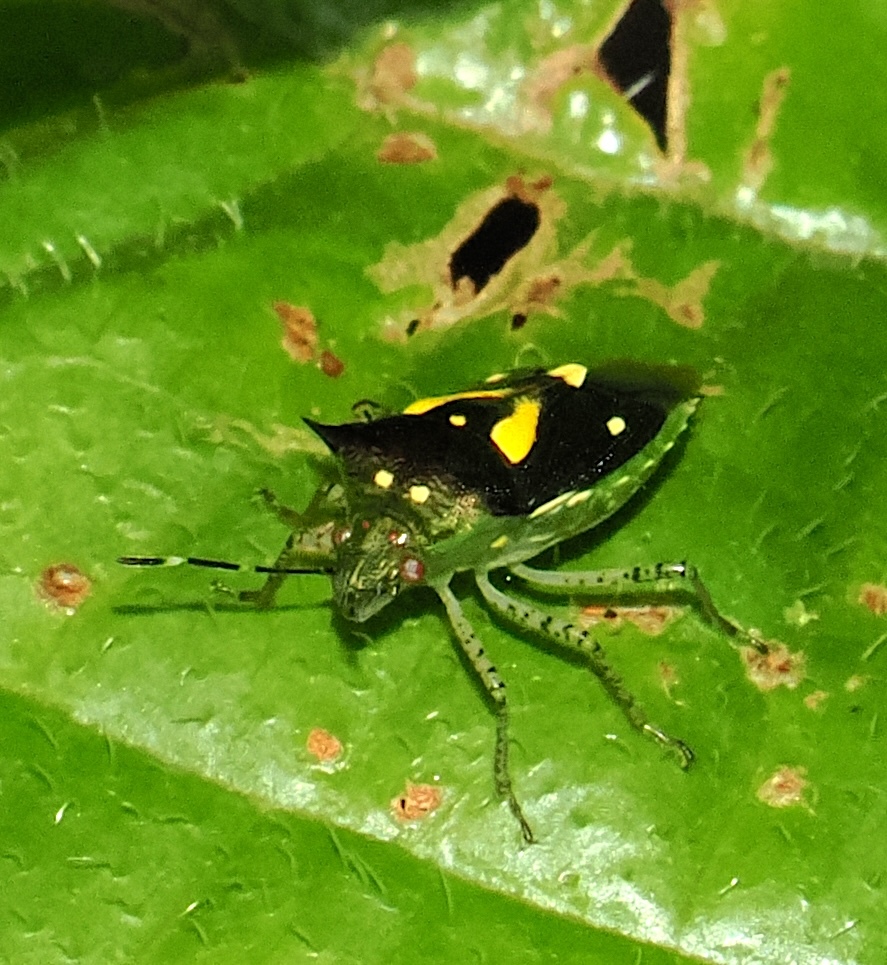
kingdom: Animalia
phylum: Arthropoda
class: Insecta
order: Hemiptera
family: Pentatomidae
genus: Mormidea
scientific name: Mormidea ypsilon
